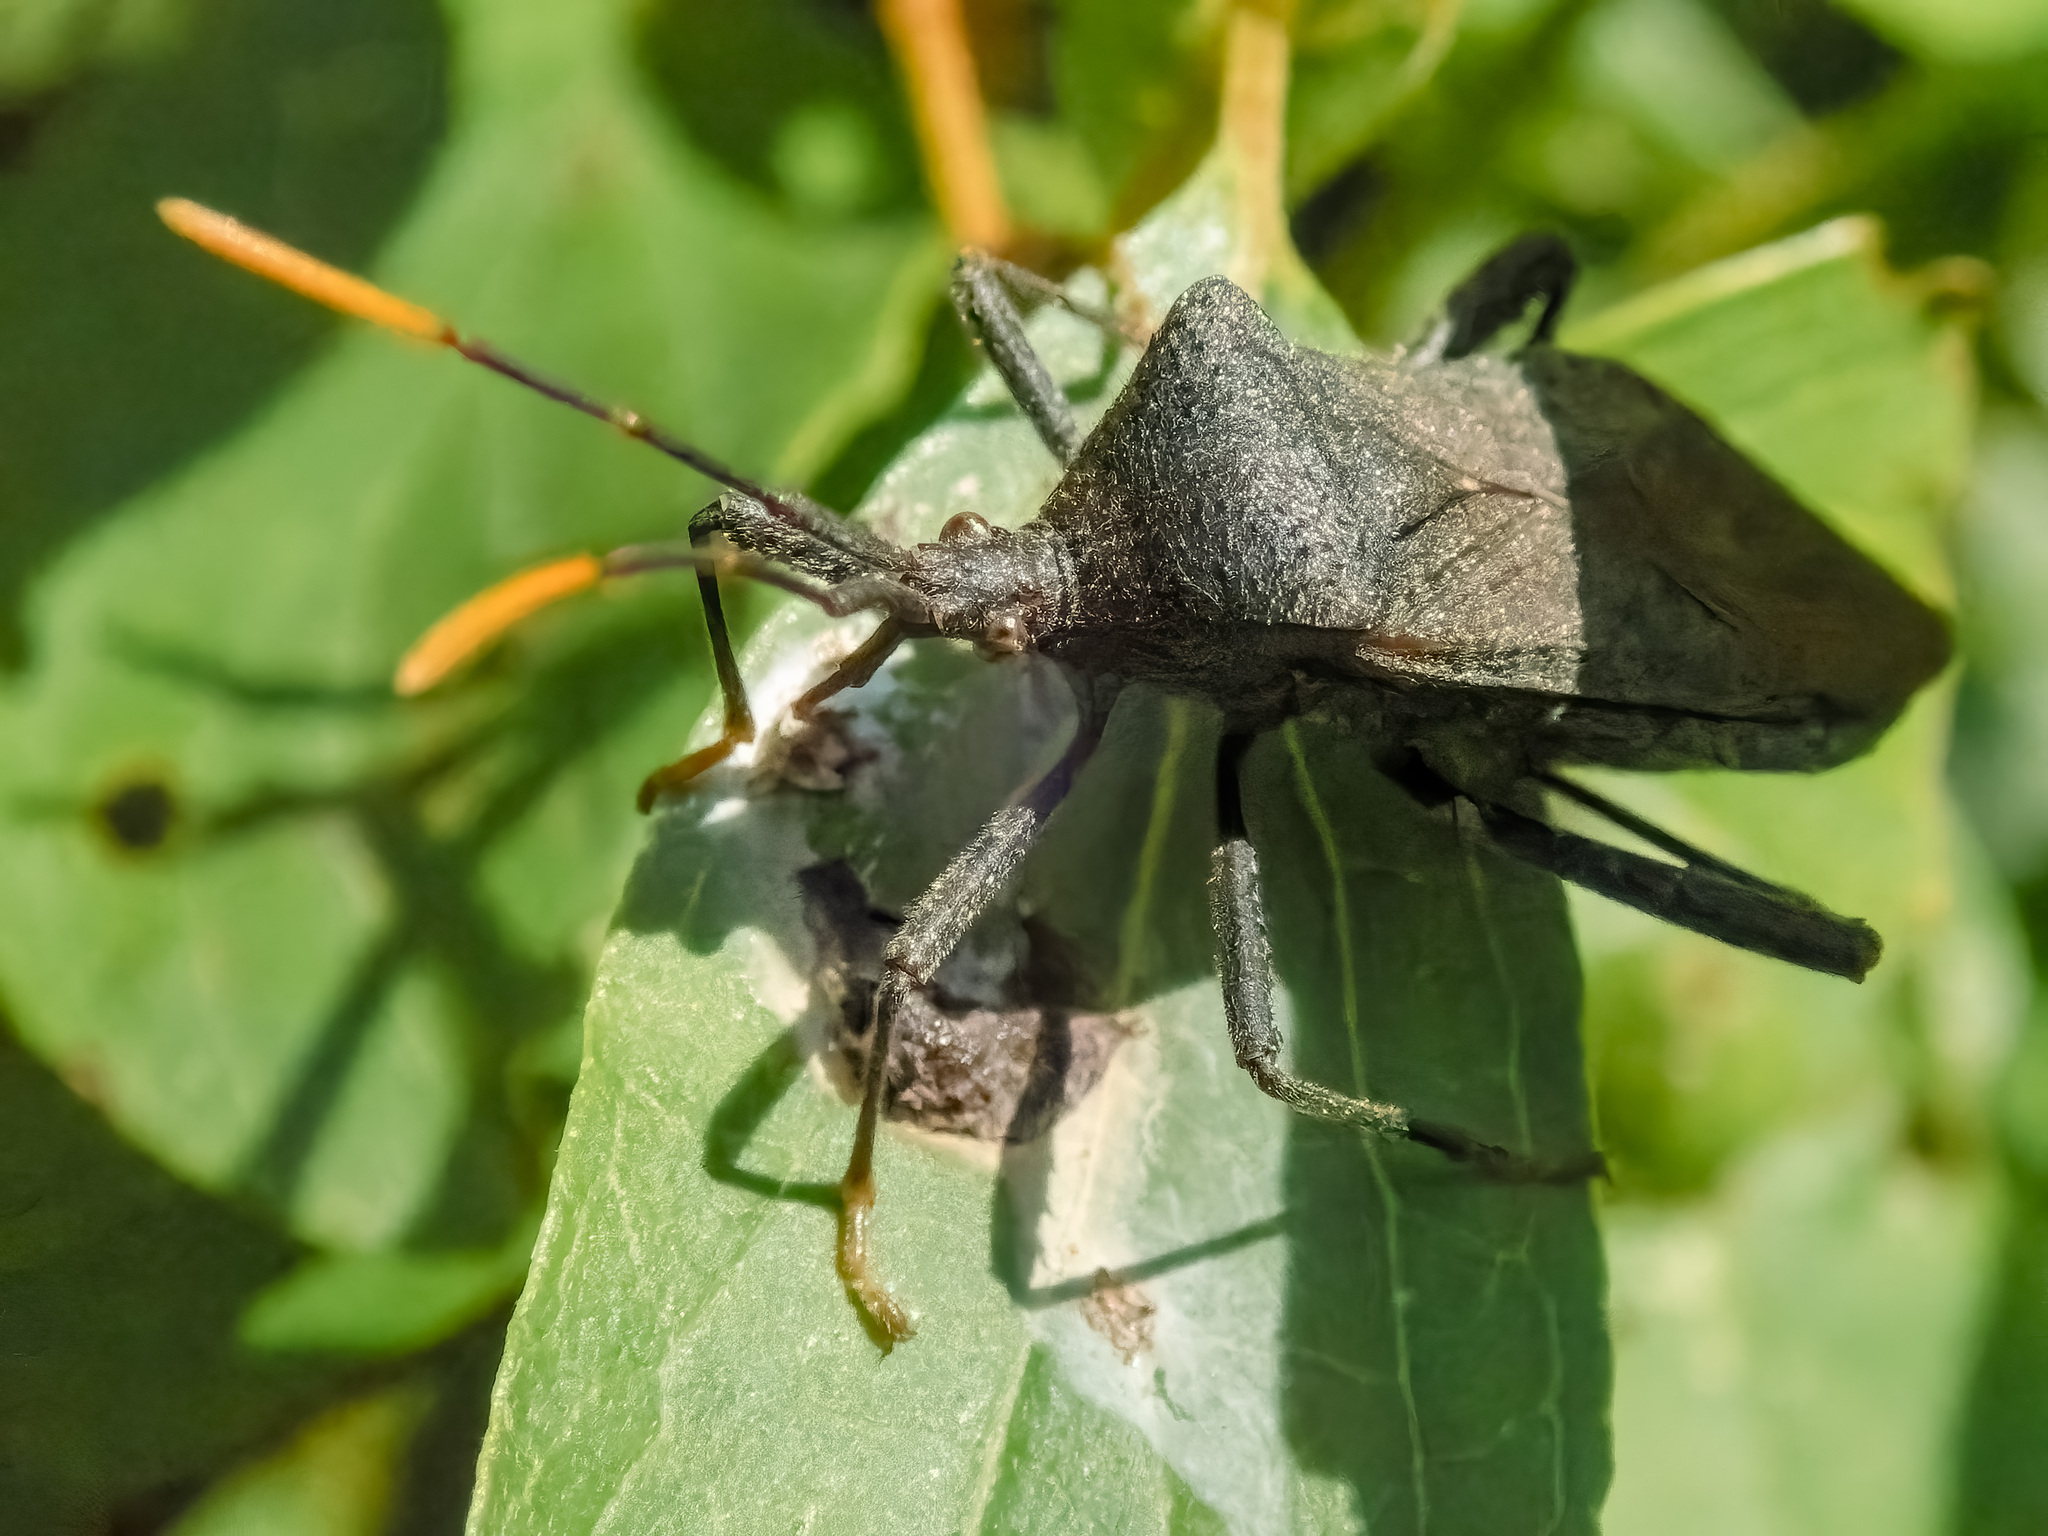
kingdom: Animalia
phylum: Arthropoda
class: Insecta
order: Hemiptera
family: Coreidae
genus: Acanthocephala
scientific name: Acanthocephala terminalis
